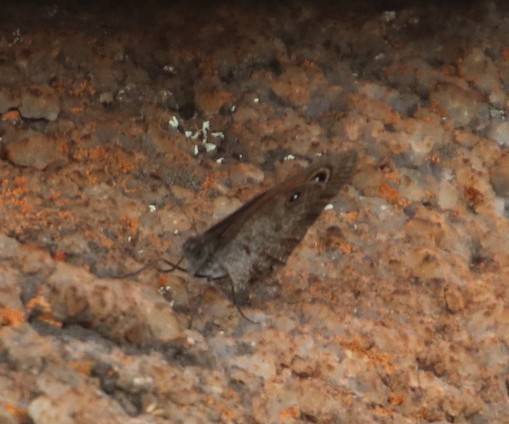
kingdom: Animalia
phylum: Arthropoda
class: Insecta
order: Lepidoptera
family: Nymphalidae
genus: Stygionympha
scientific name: Stygionympha wichgrafi
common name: Wichgraf’s hillside brown
